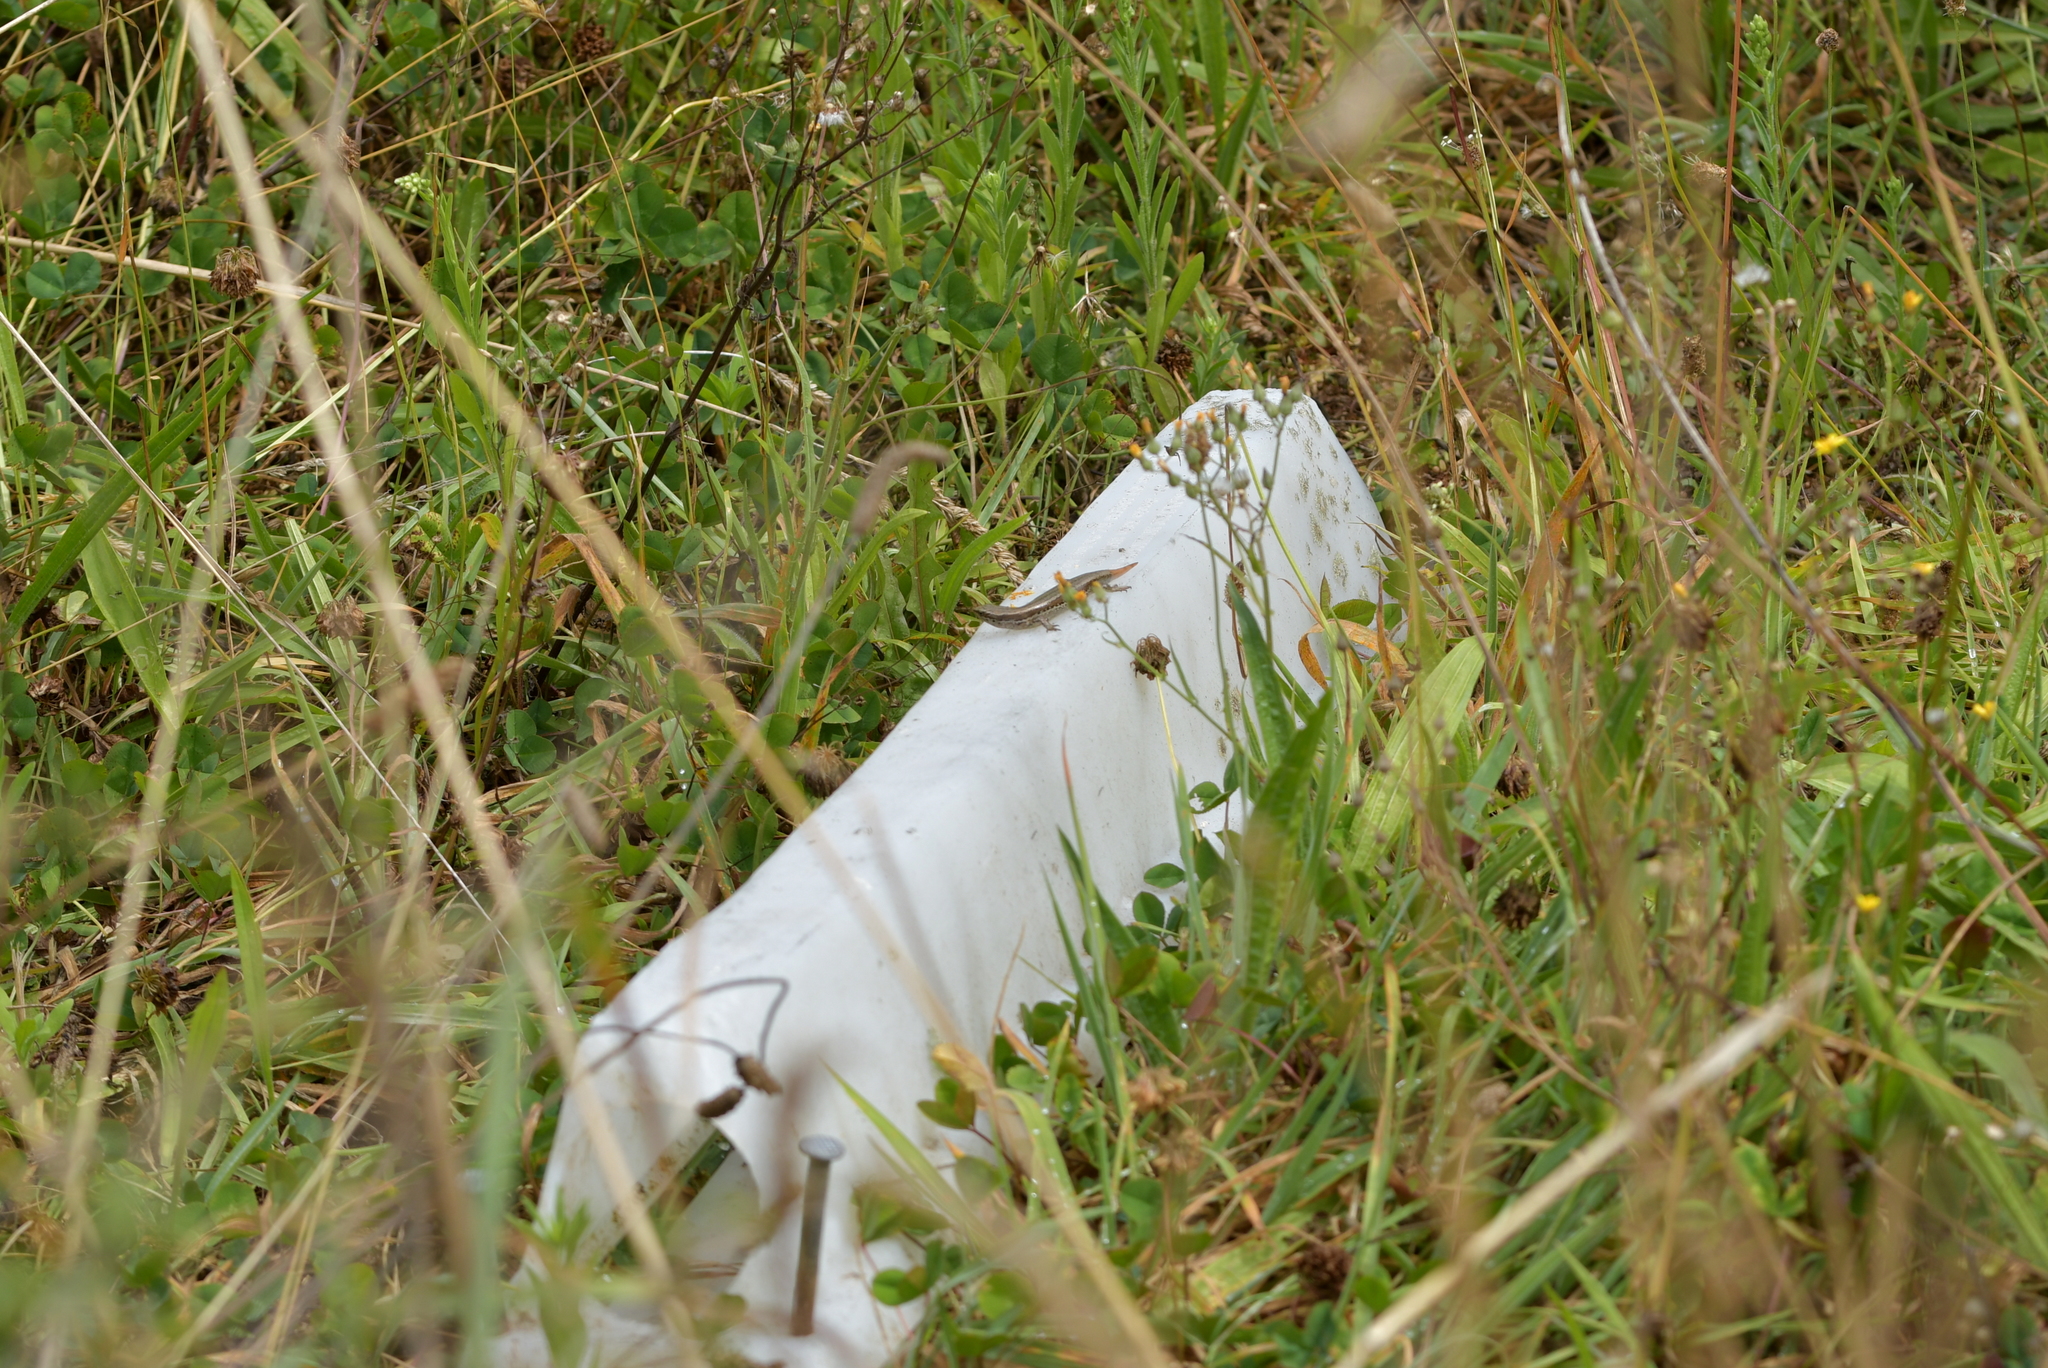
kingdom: Animalia
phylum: Chordata
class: Squamata
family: Scincidae
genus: Oligosoma
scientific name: Oligosoma polychroma
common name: Common new zealand skink
